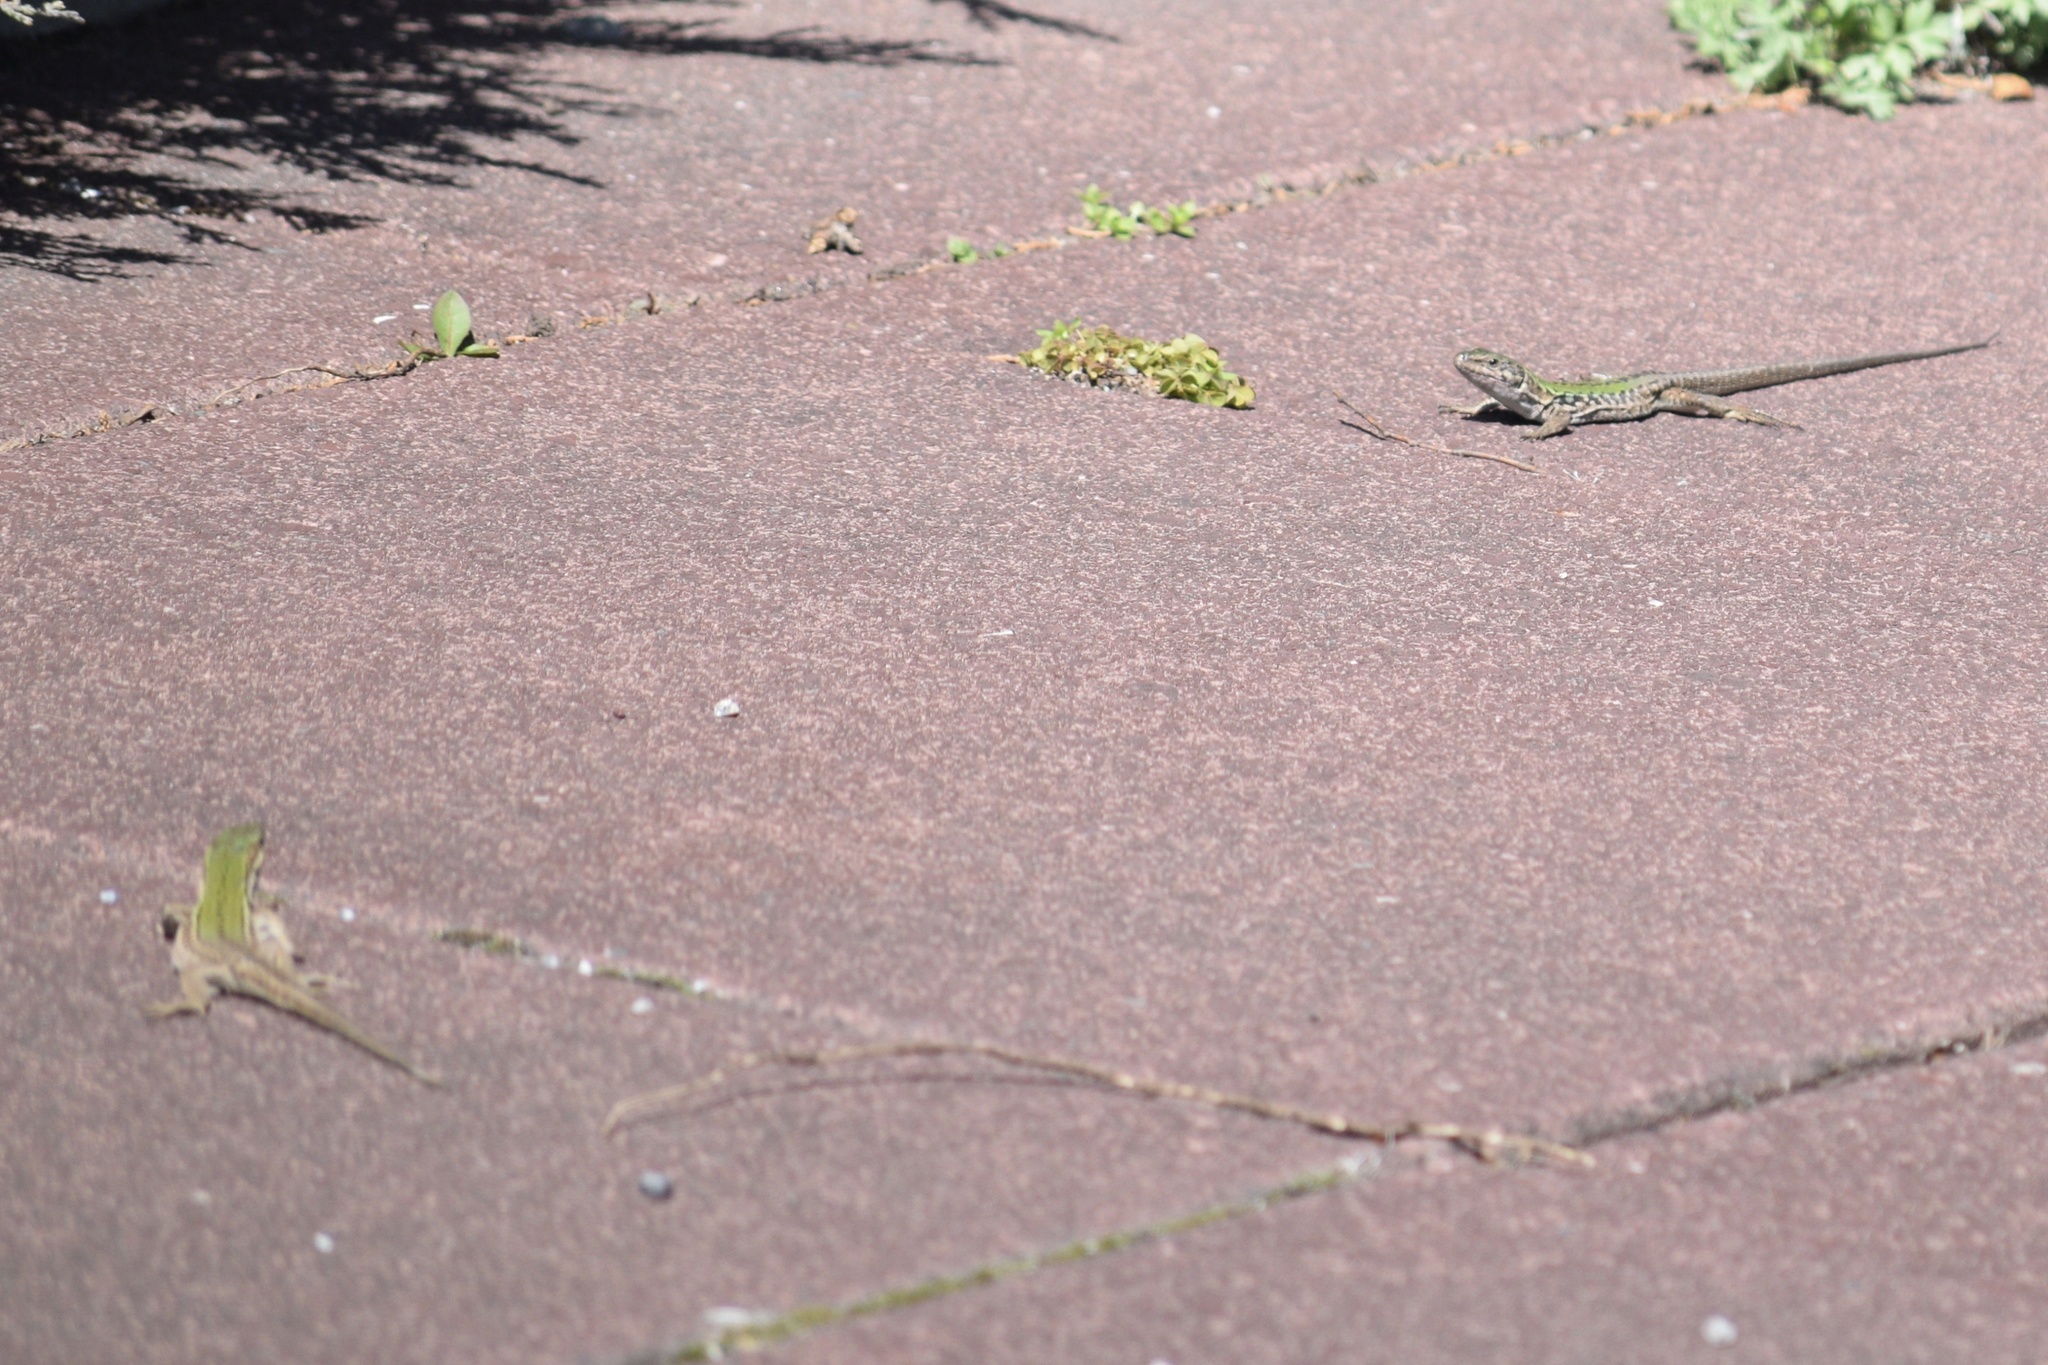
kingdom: Animalia
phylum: Chordata
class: Squamata
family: Lacertidae
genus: Podarcis
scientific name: Podarcis siculus
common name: Italian wall lizard
